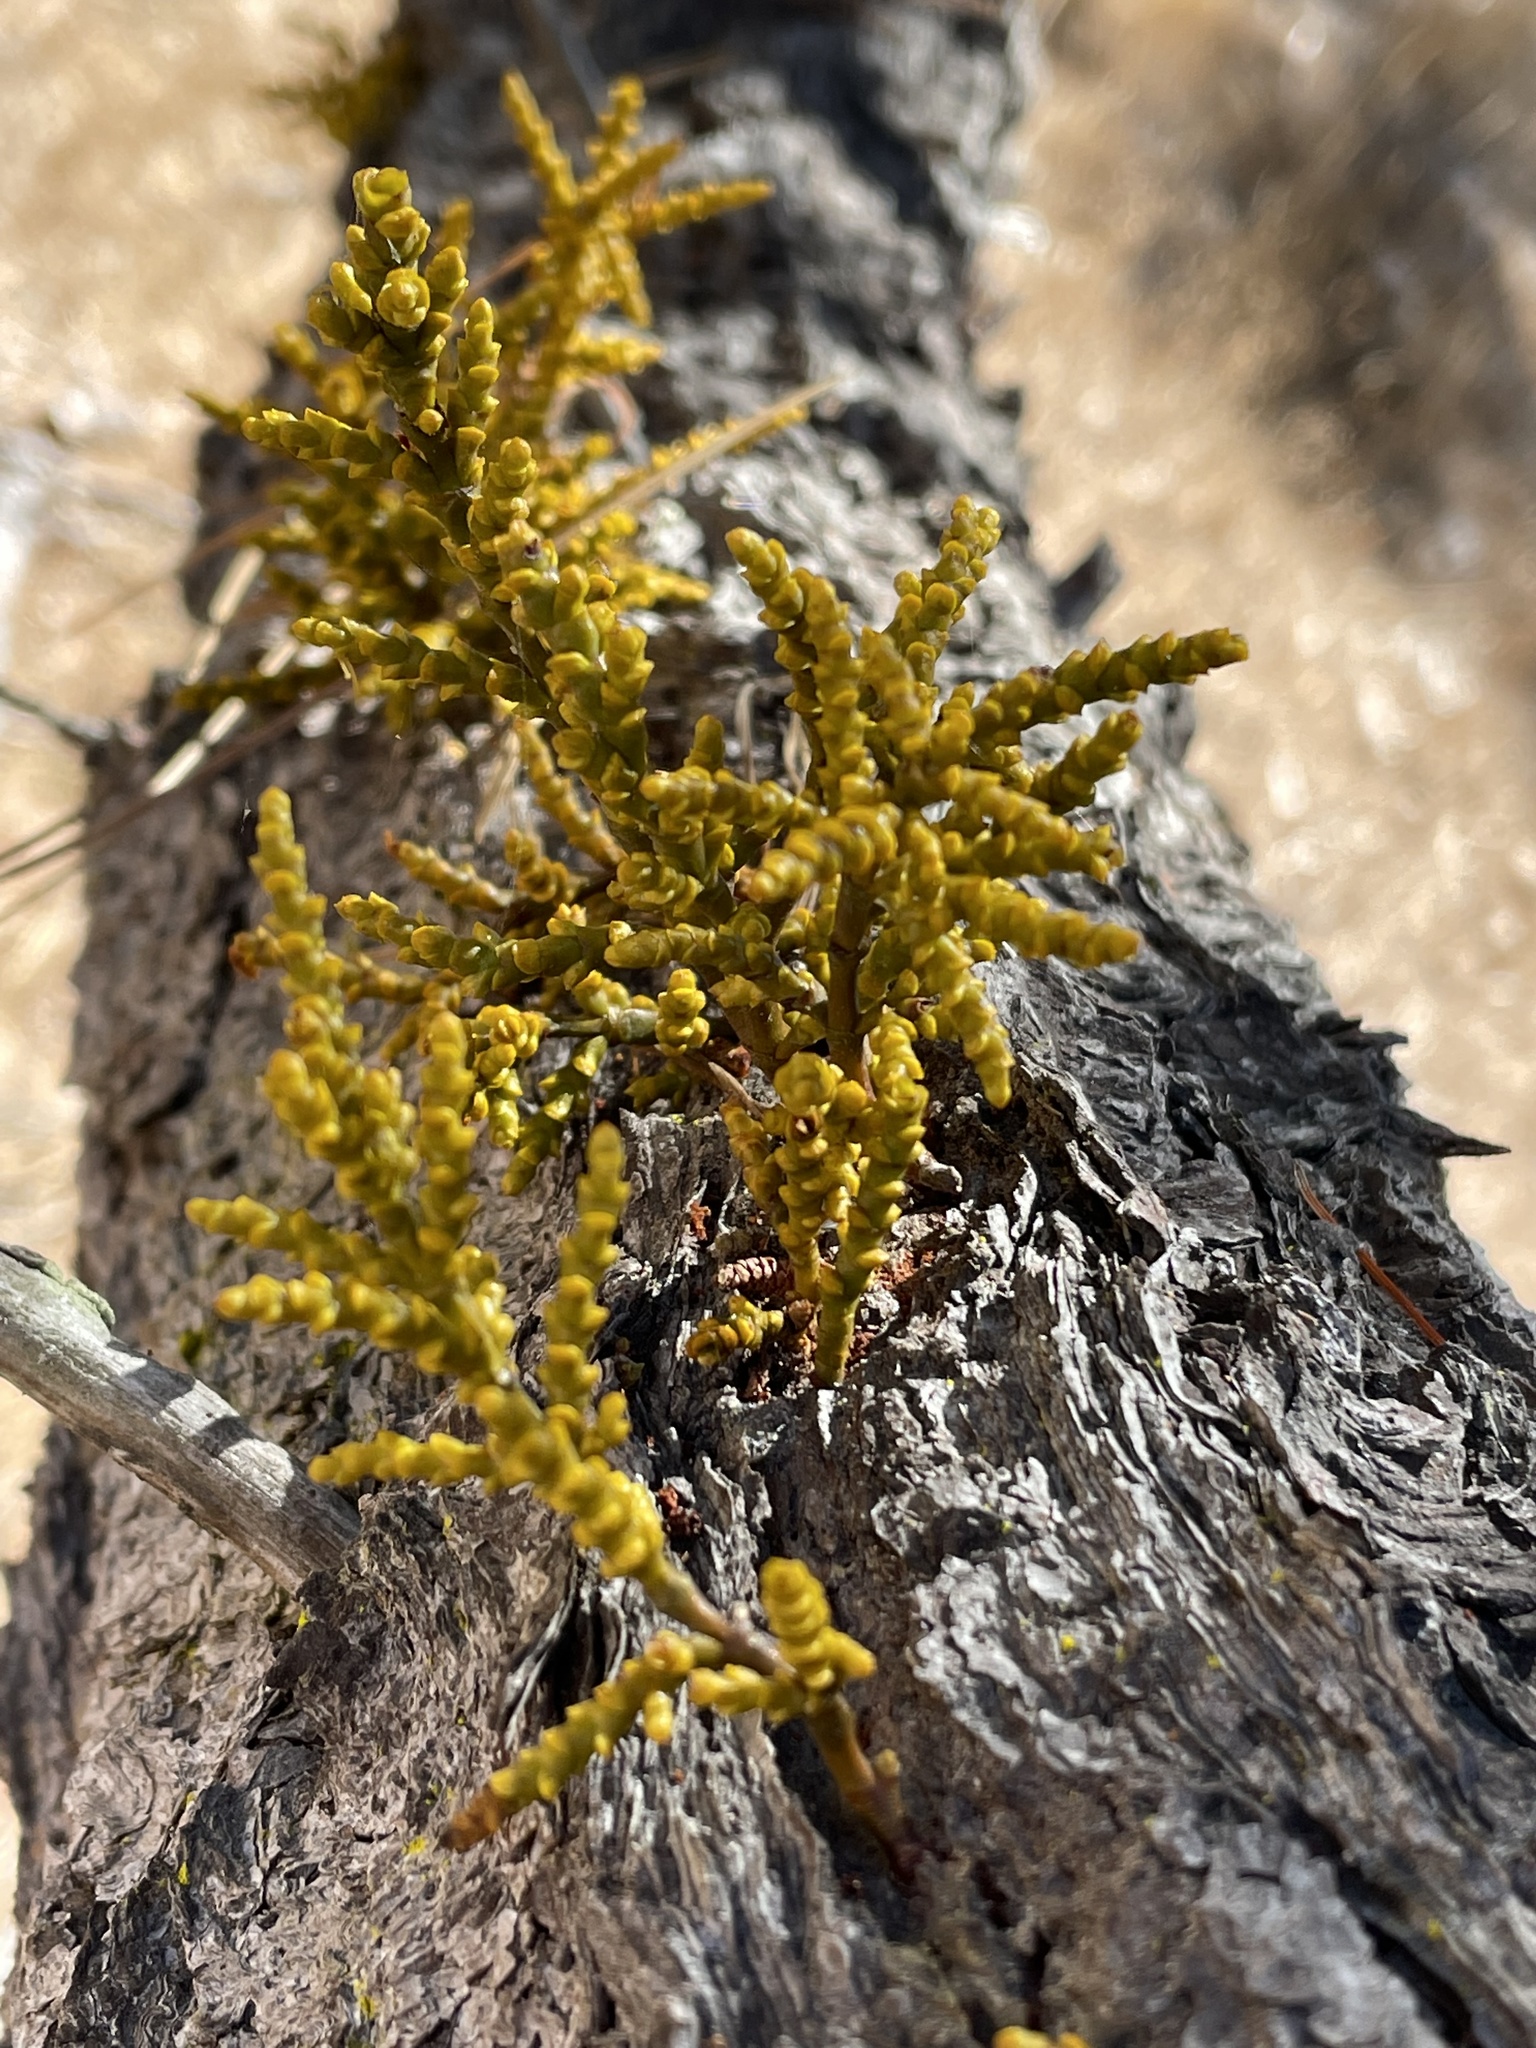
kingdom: Plantae
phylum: Tracheophyta
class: Magnoliopsida
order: Santalales
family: Viscaceae
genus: Arceuthobium
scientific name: Arceuthobium campylopodum
